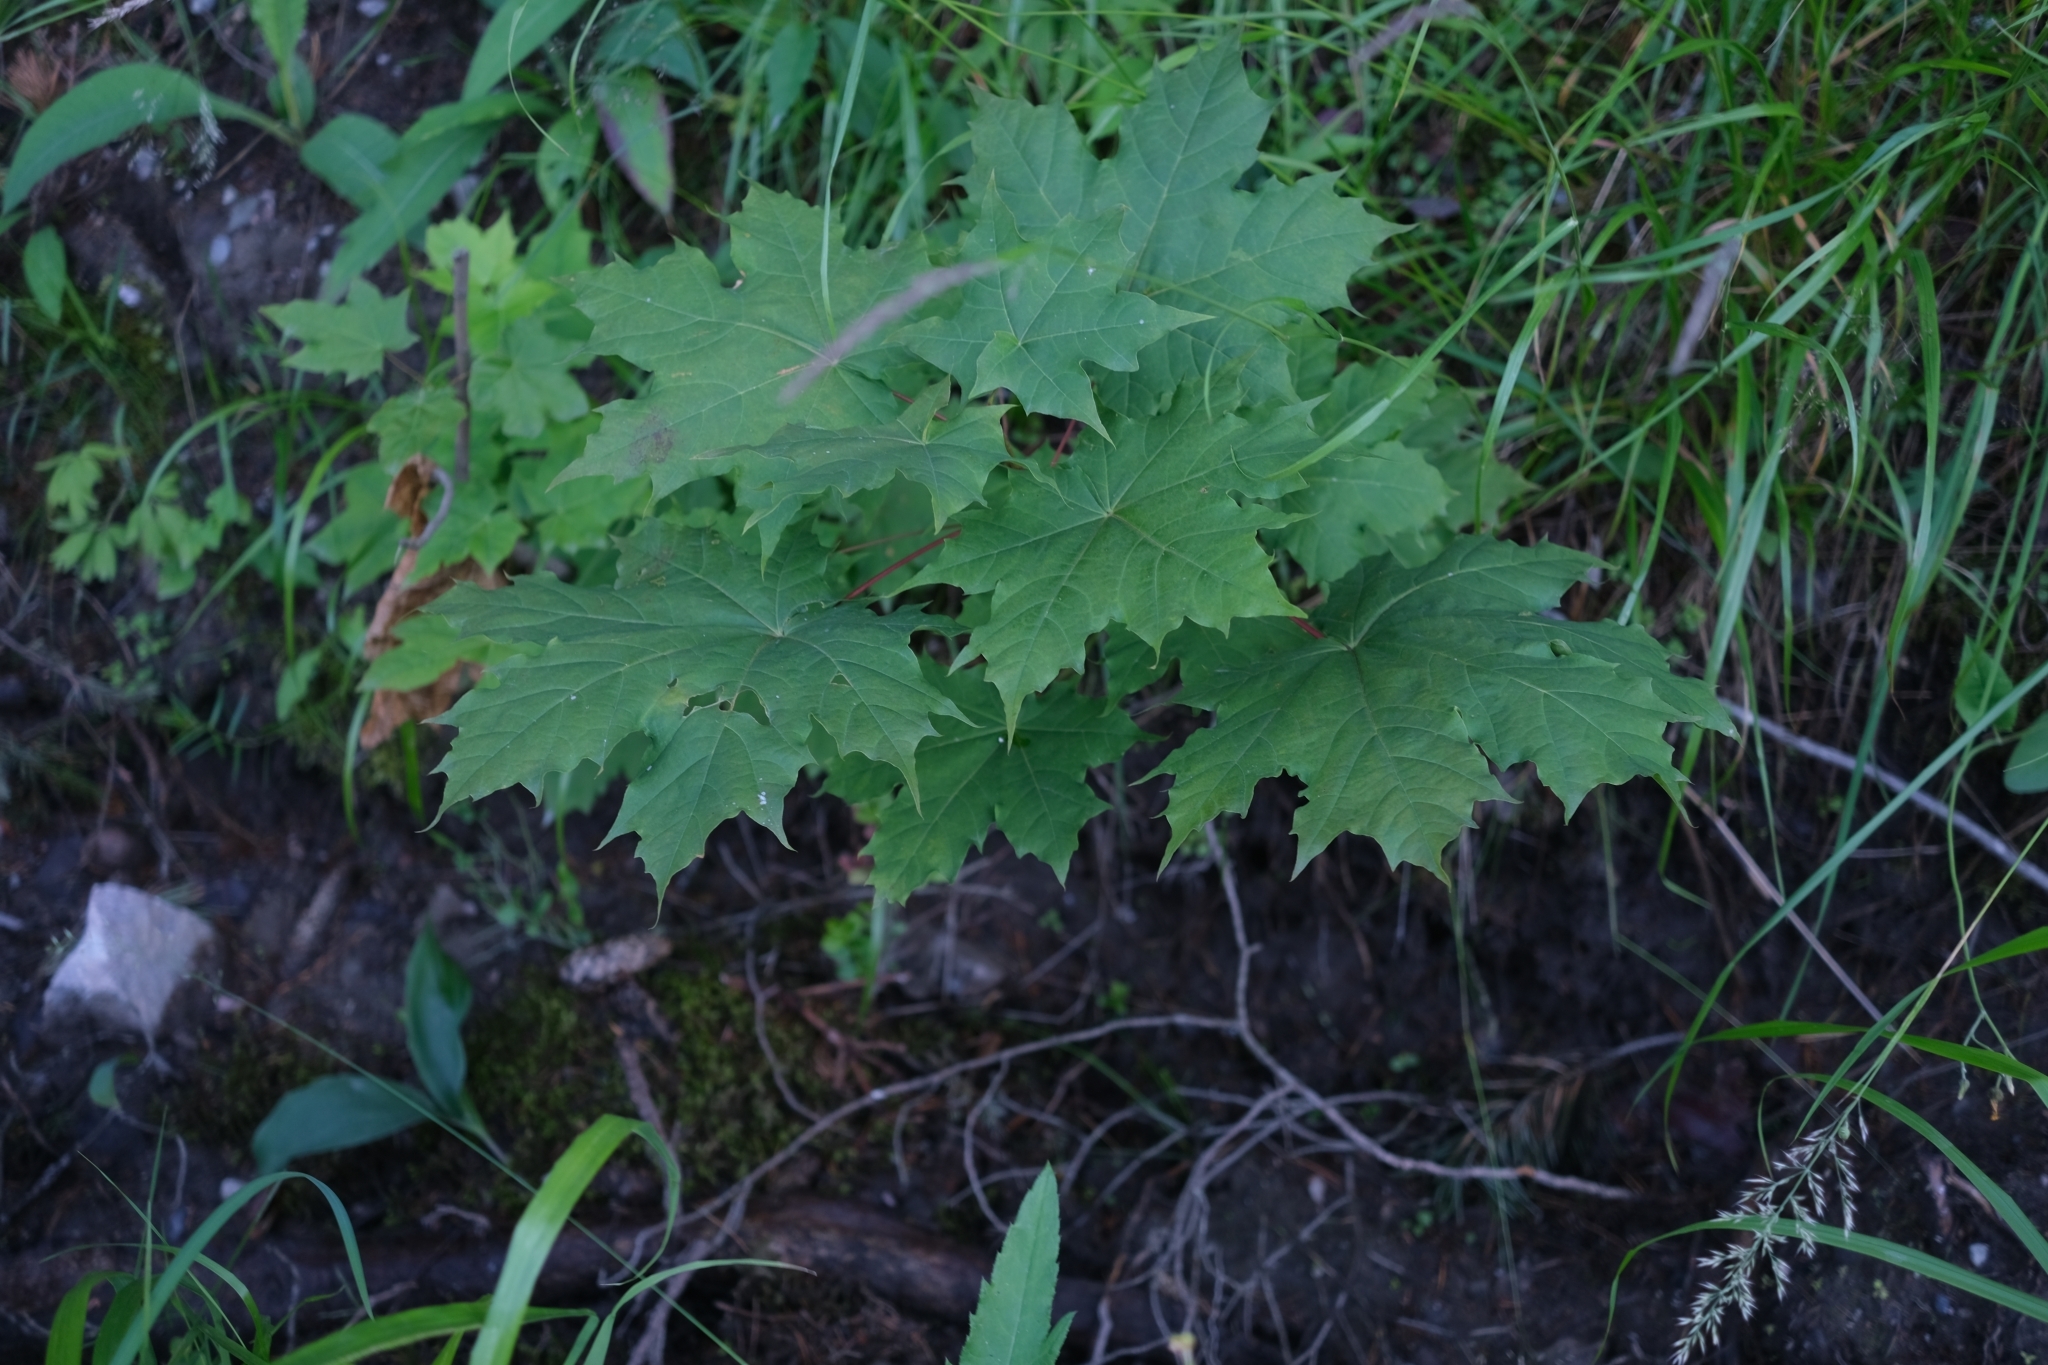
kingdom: Plantae
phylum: Tracheophyta
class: Magnoliopsida
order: Sapindales
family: Sapindaceae
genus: Acer
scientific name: Acer platanoides
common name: Norway maple
